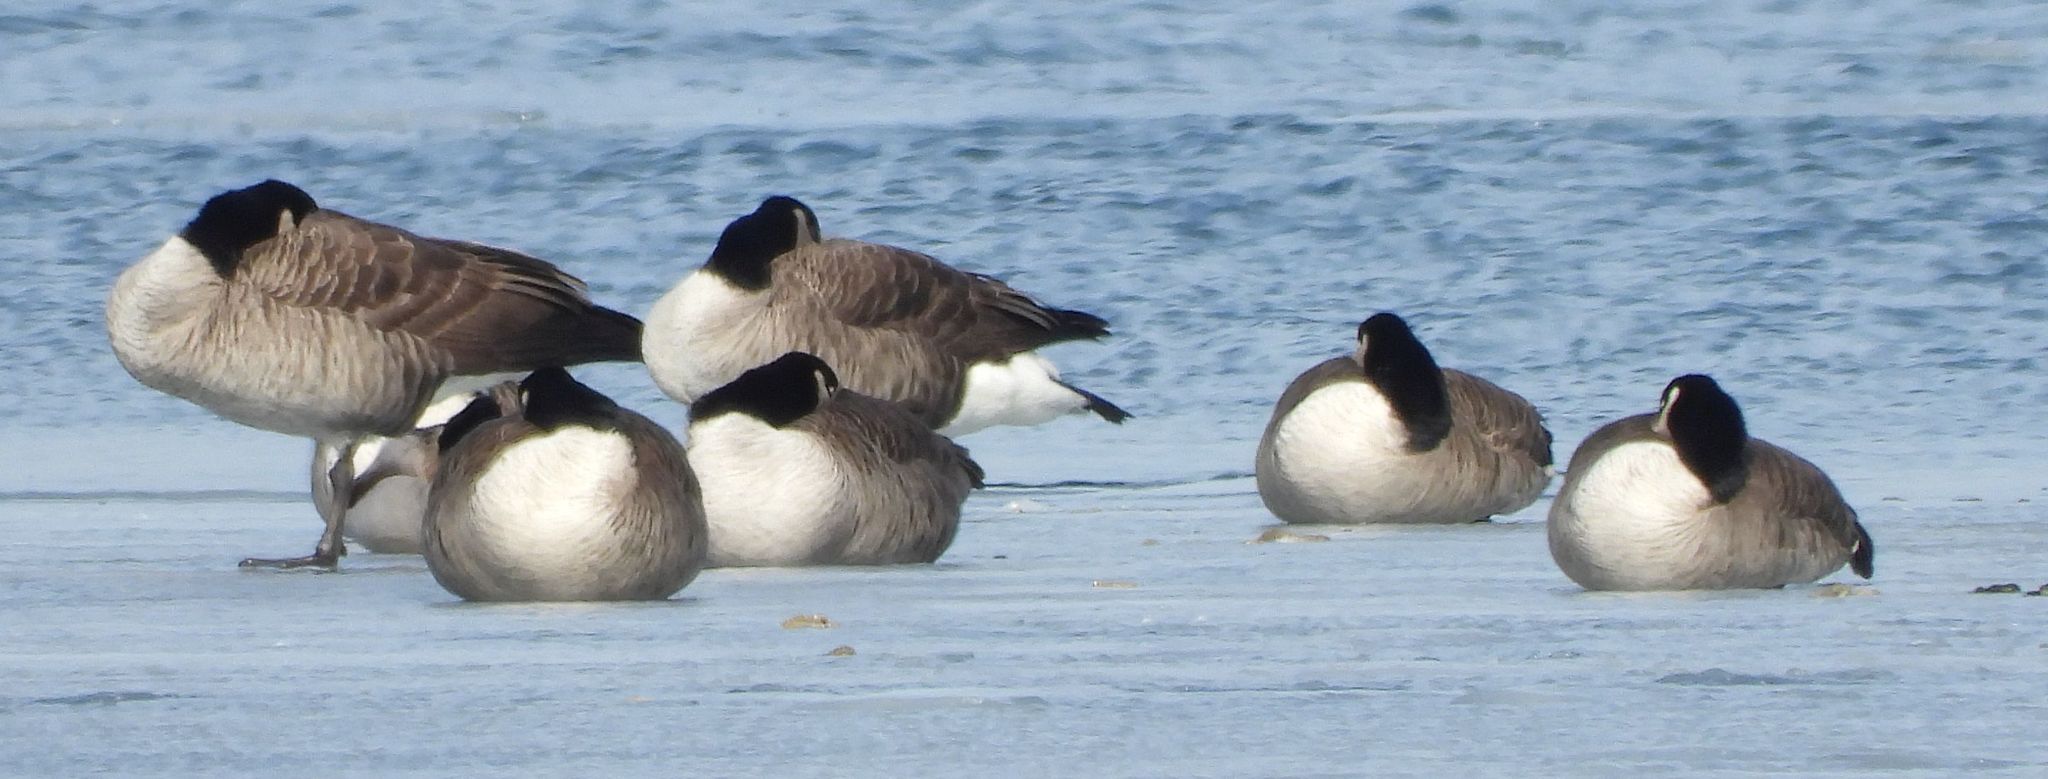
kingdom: Animalia
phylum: Chordata
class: Aves
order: Anseriformes
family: Anatidae
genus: Branta
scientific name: Branta canadensis
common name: Canada goose
